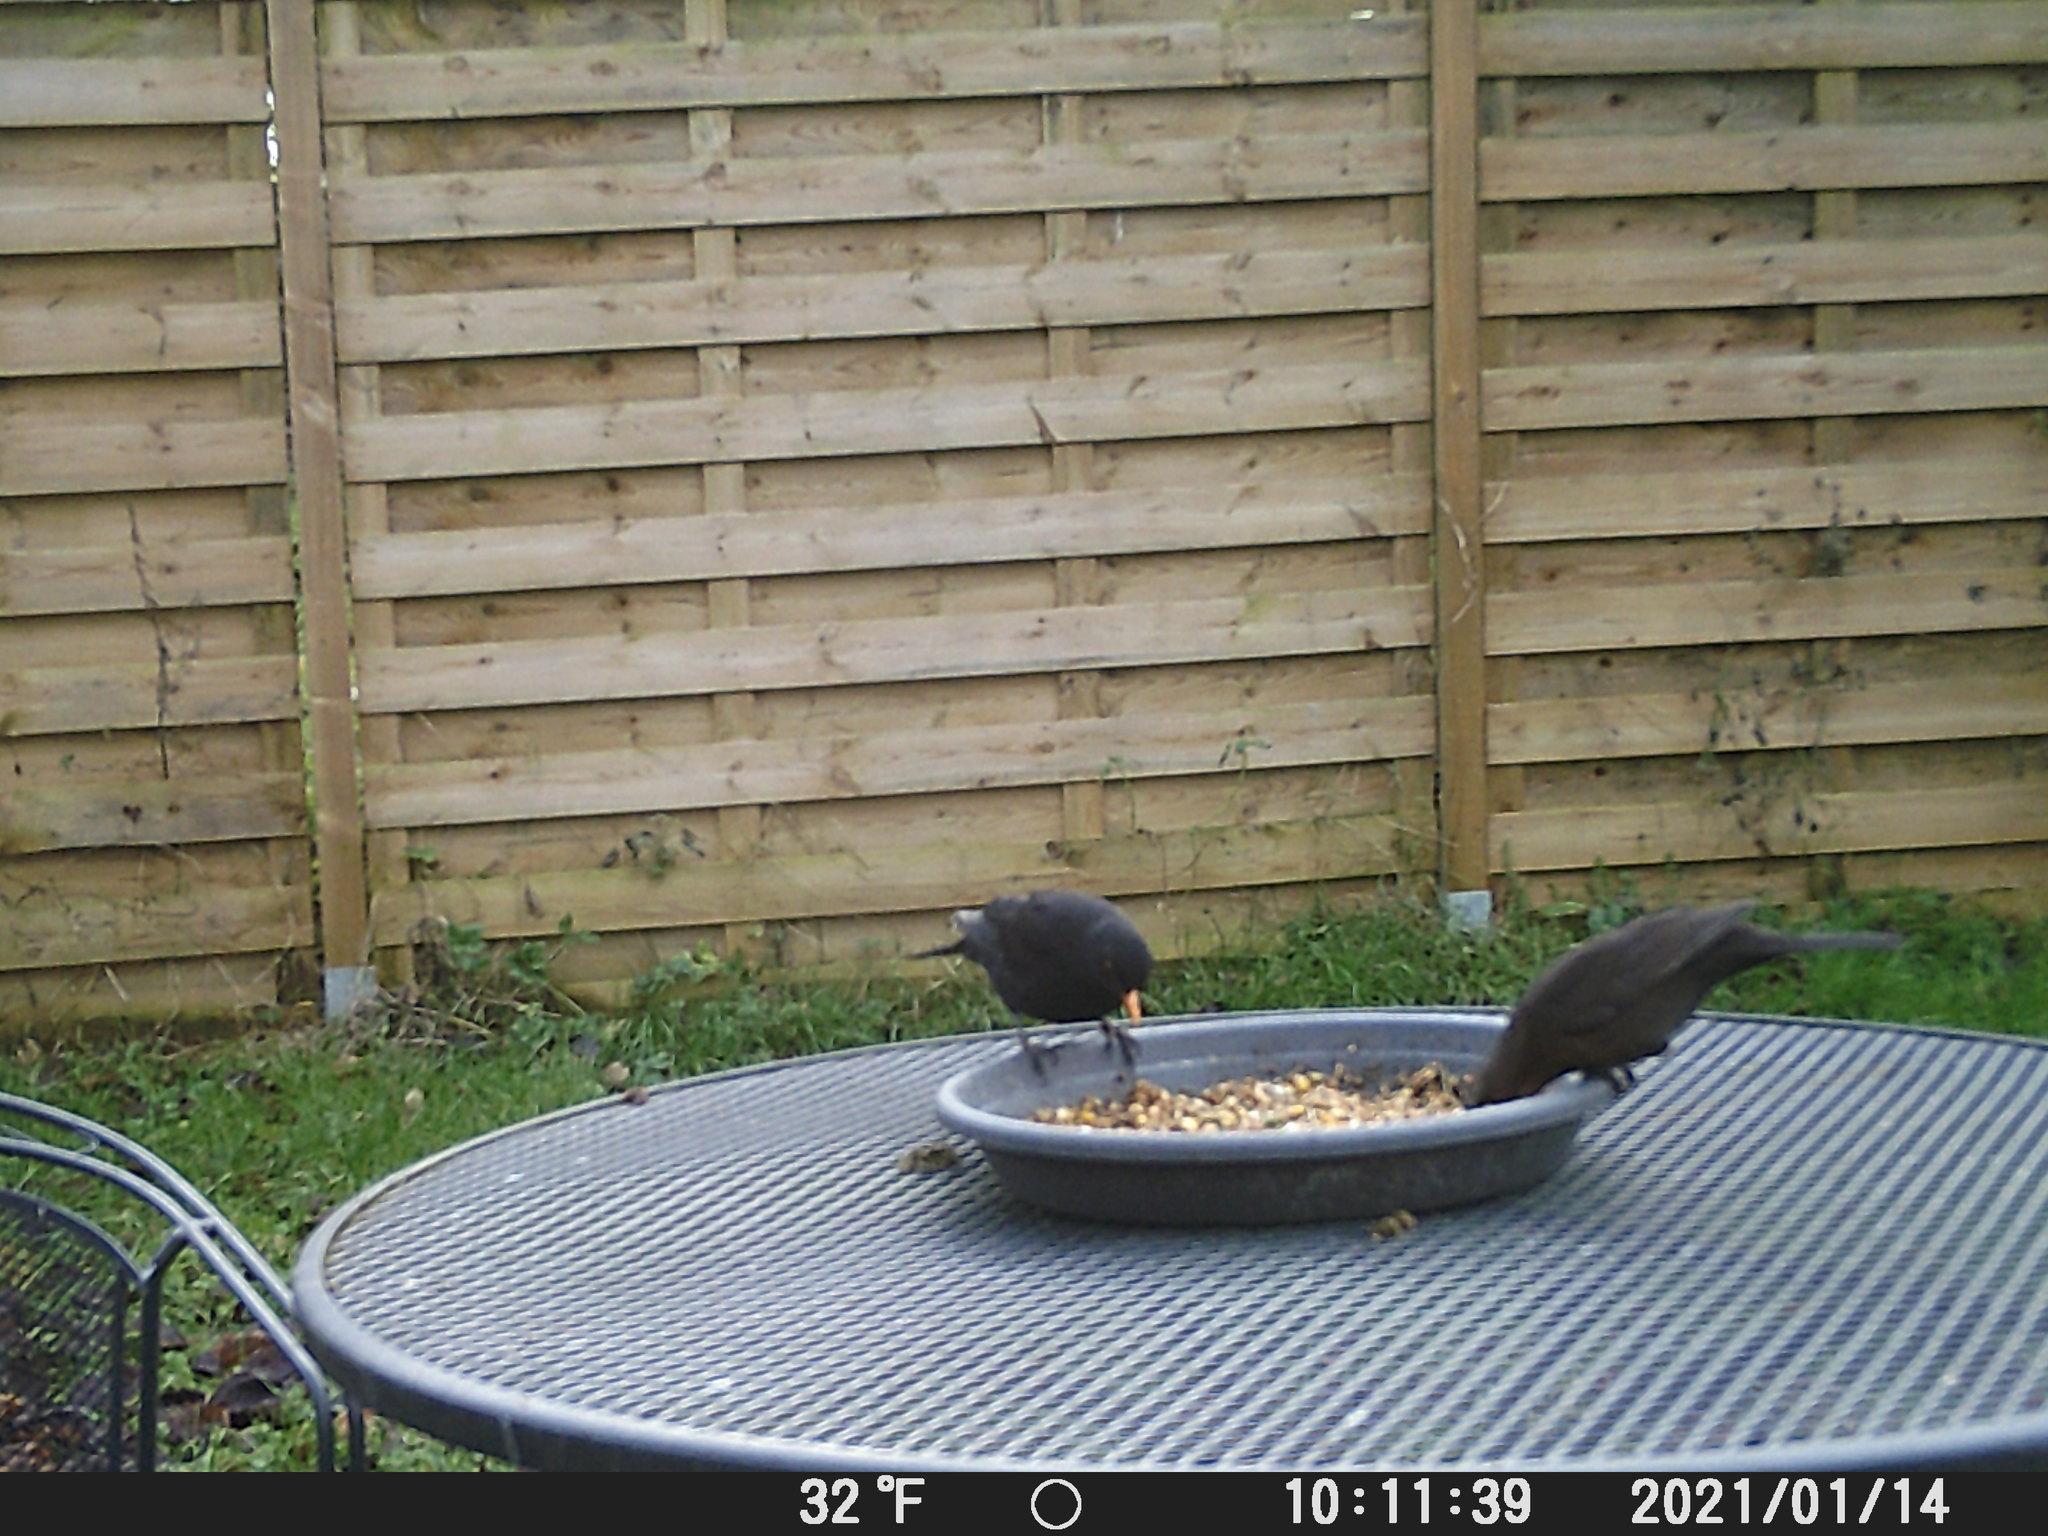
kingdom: Animalia
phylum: Chordata
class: Aves
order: Passeriformes
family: Turdidae
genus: Turdus
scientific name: Turdus merula
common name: Common blackbird
